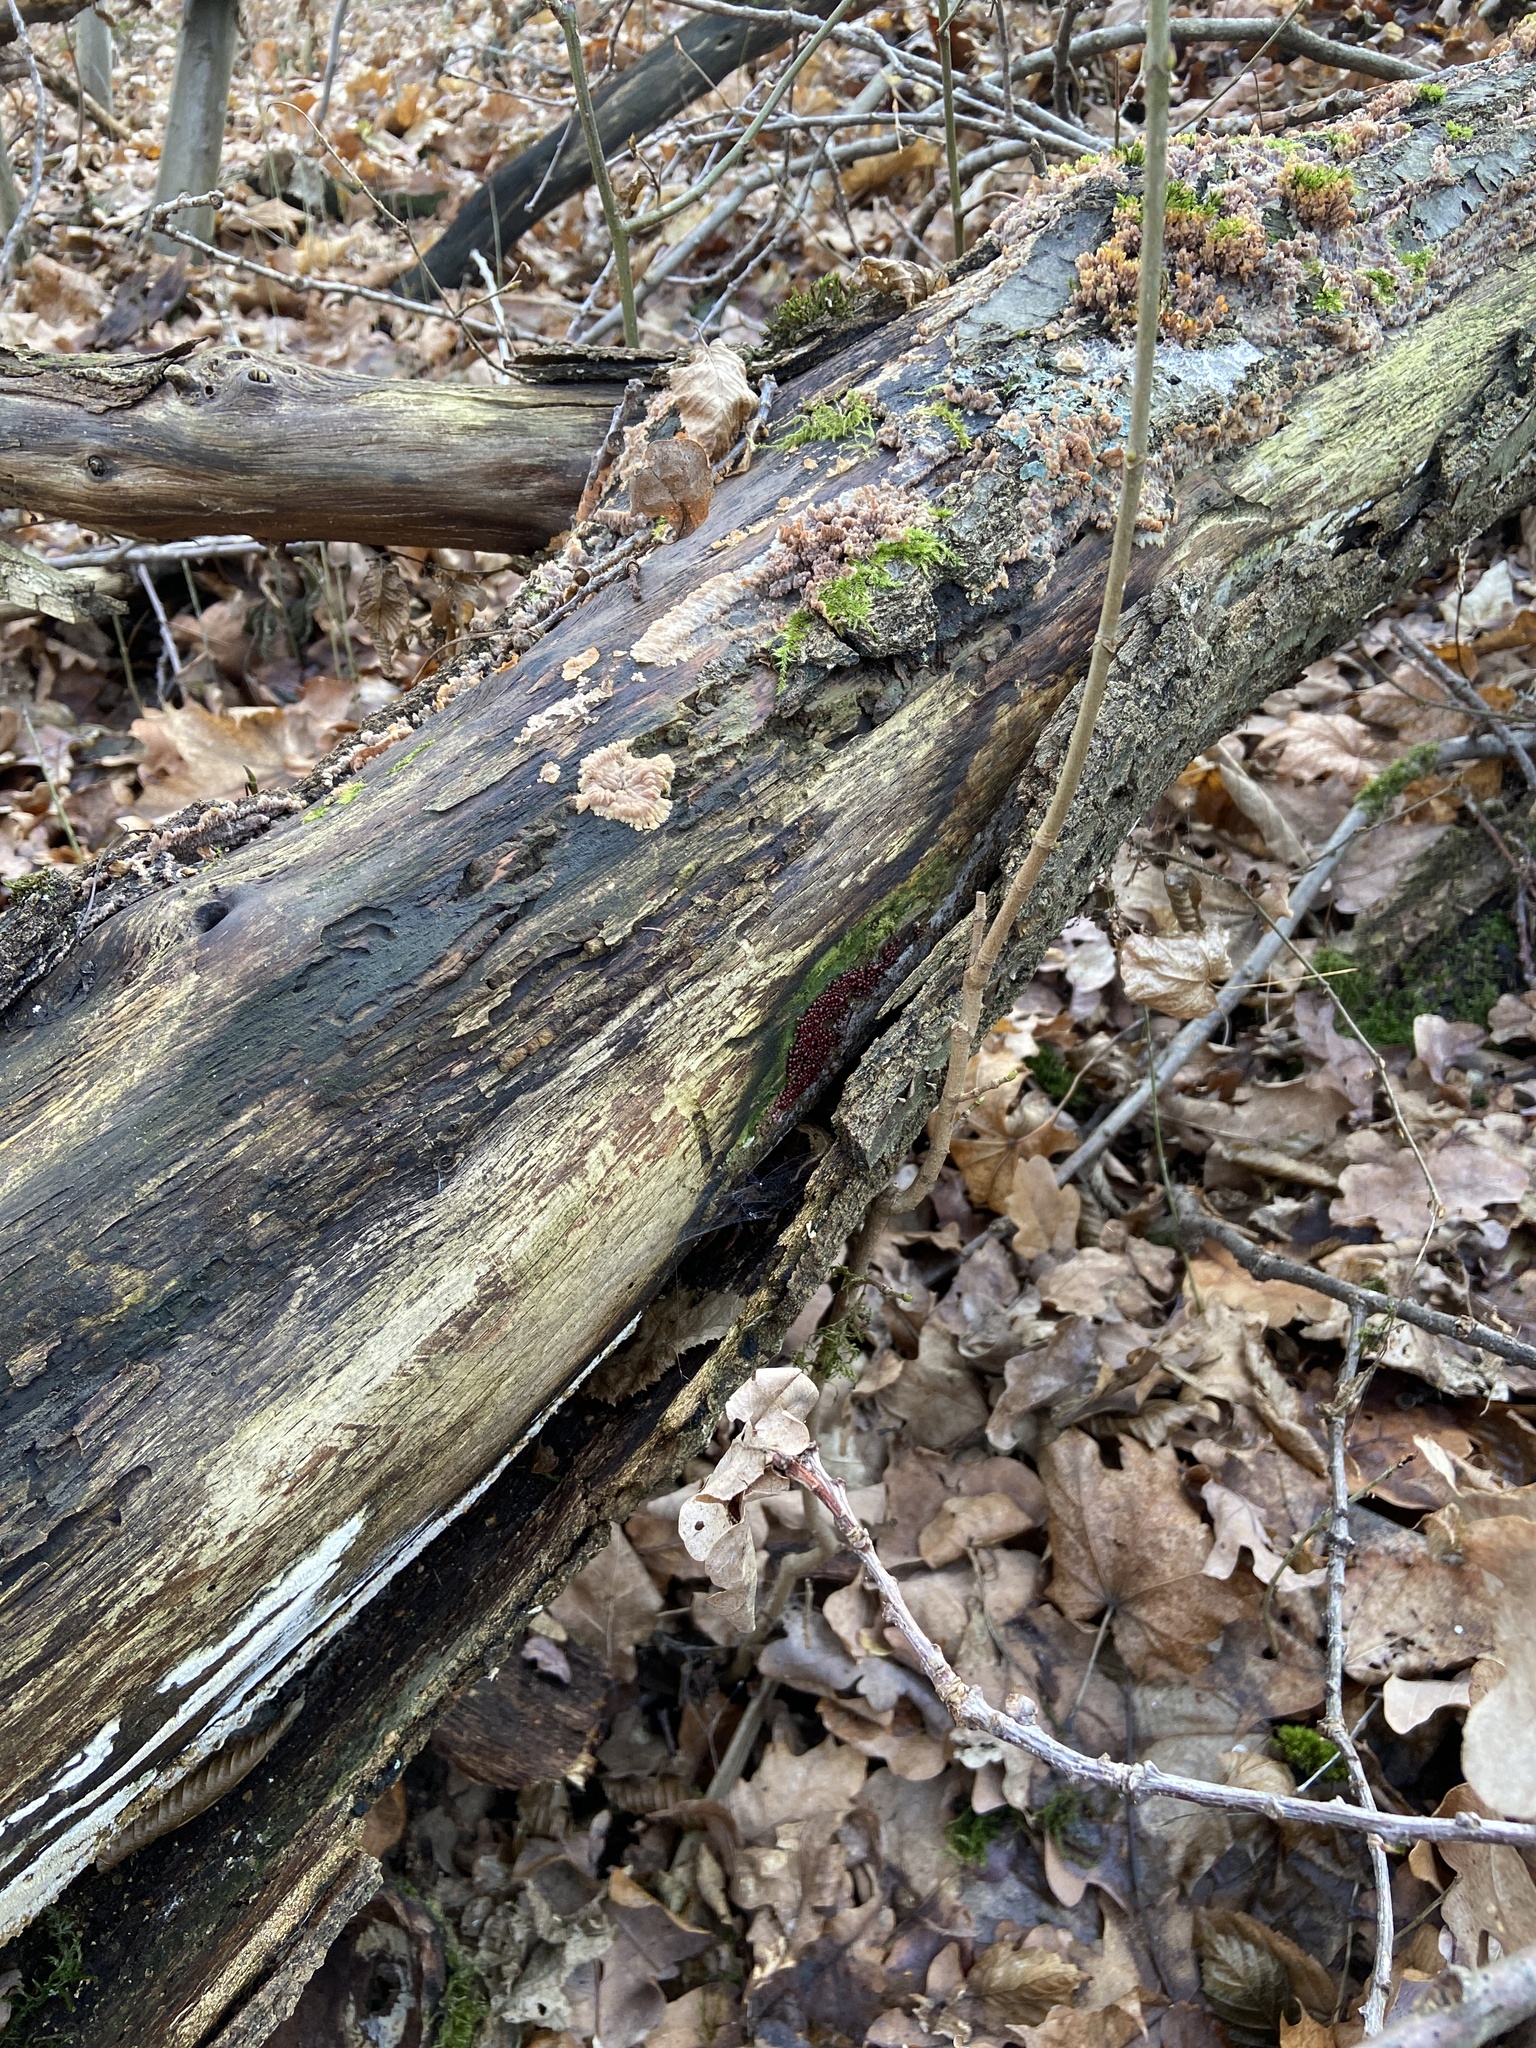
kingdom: Protozoa
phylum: Mycetozoa
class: Myxomycetes
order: Stemonitidales
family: Stemonitidaceae
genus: Enerthenema
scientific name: Enerthenema papillatum
